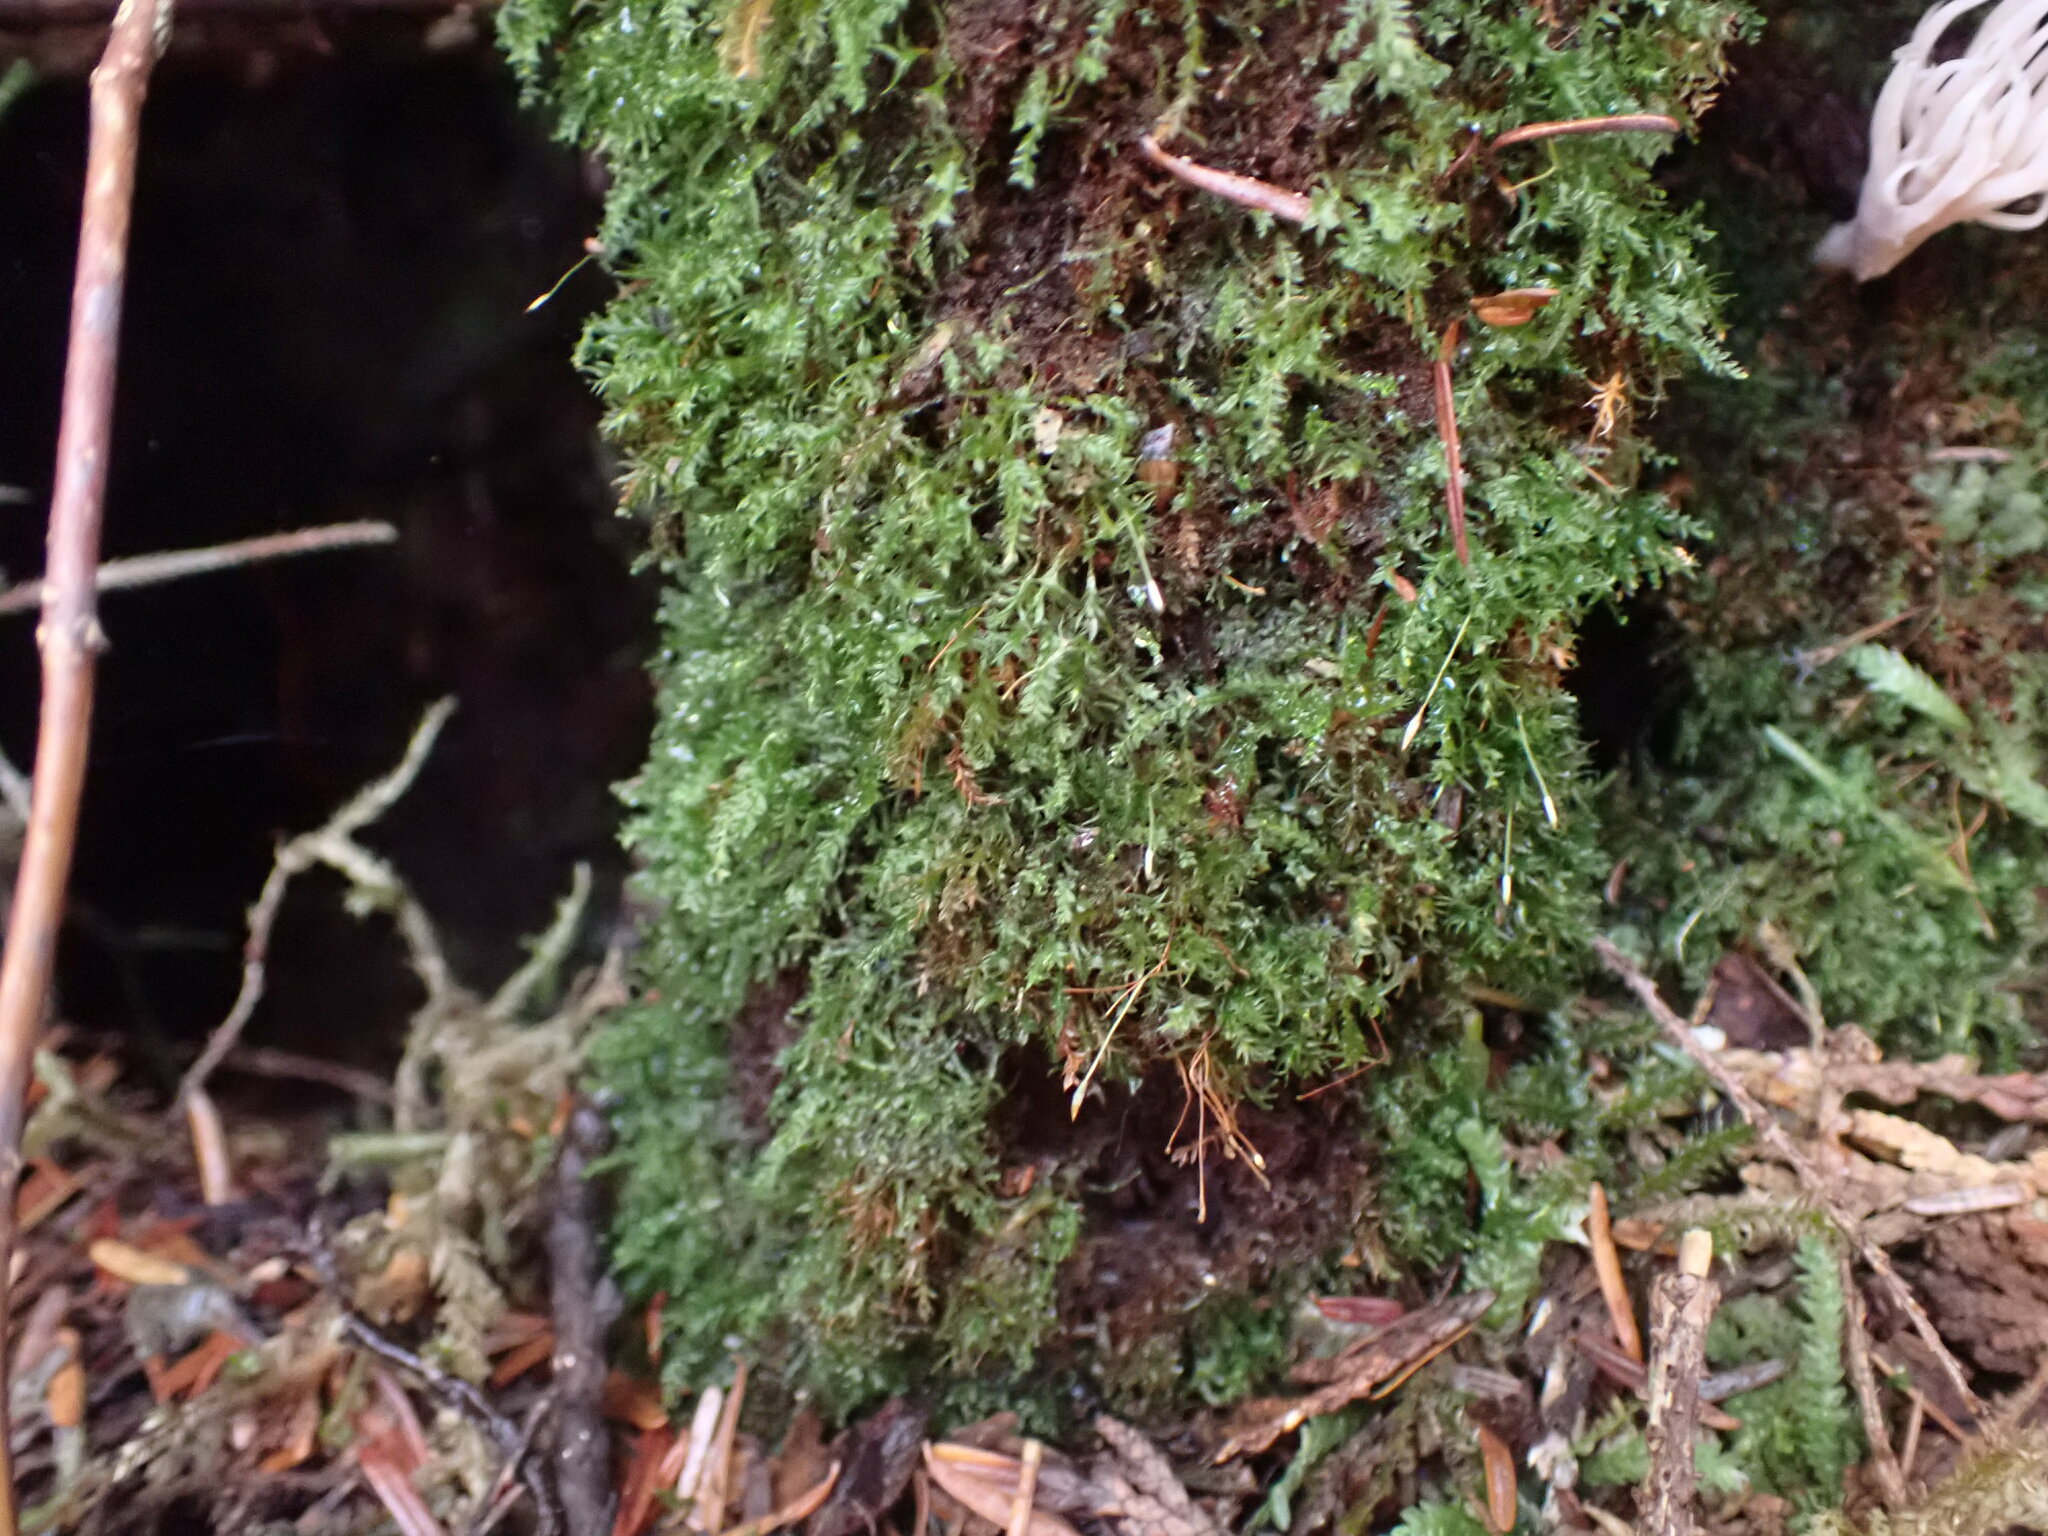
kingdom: Plantae
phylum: Bryophyta
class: Polytrichopsida
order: Tetraphidales
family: Tetraphidaceae
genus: Tetraphis
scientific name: Tetraphis geniculata
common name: Geniculate four-toothed moss
